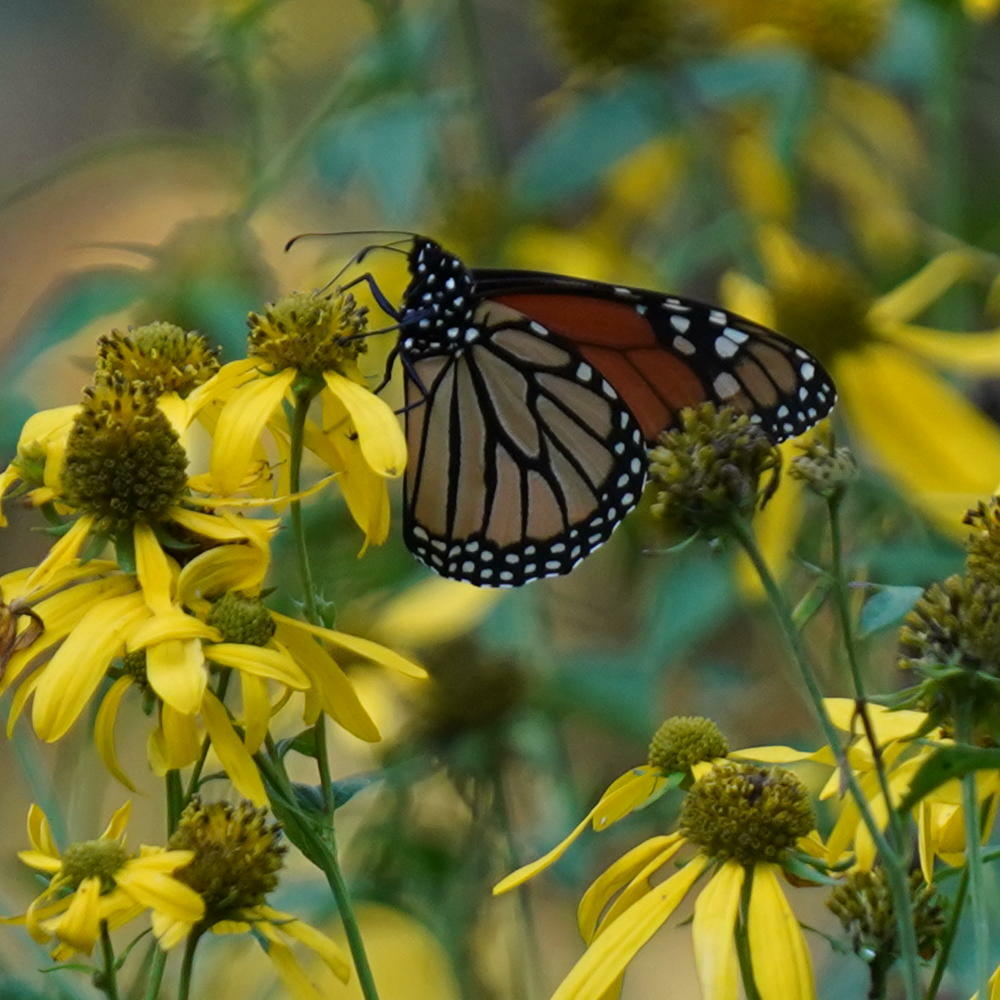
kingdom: Animalia
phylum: Arthropoda
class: Insecta
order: Lepidoptera
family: Nymphalidae
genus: Danaus
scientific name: Danaus plexippus
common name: Monarch
